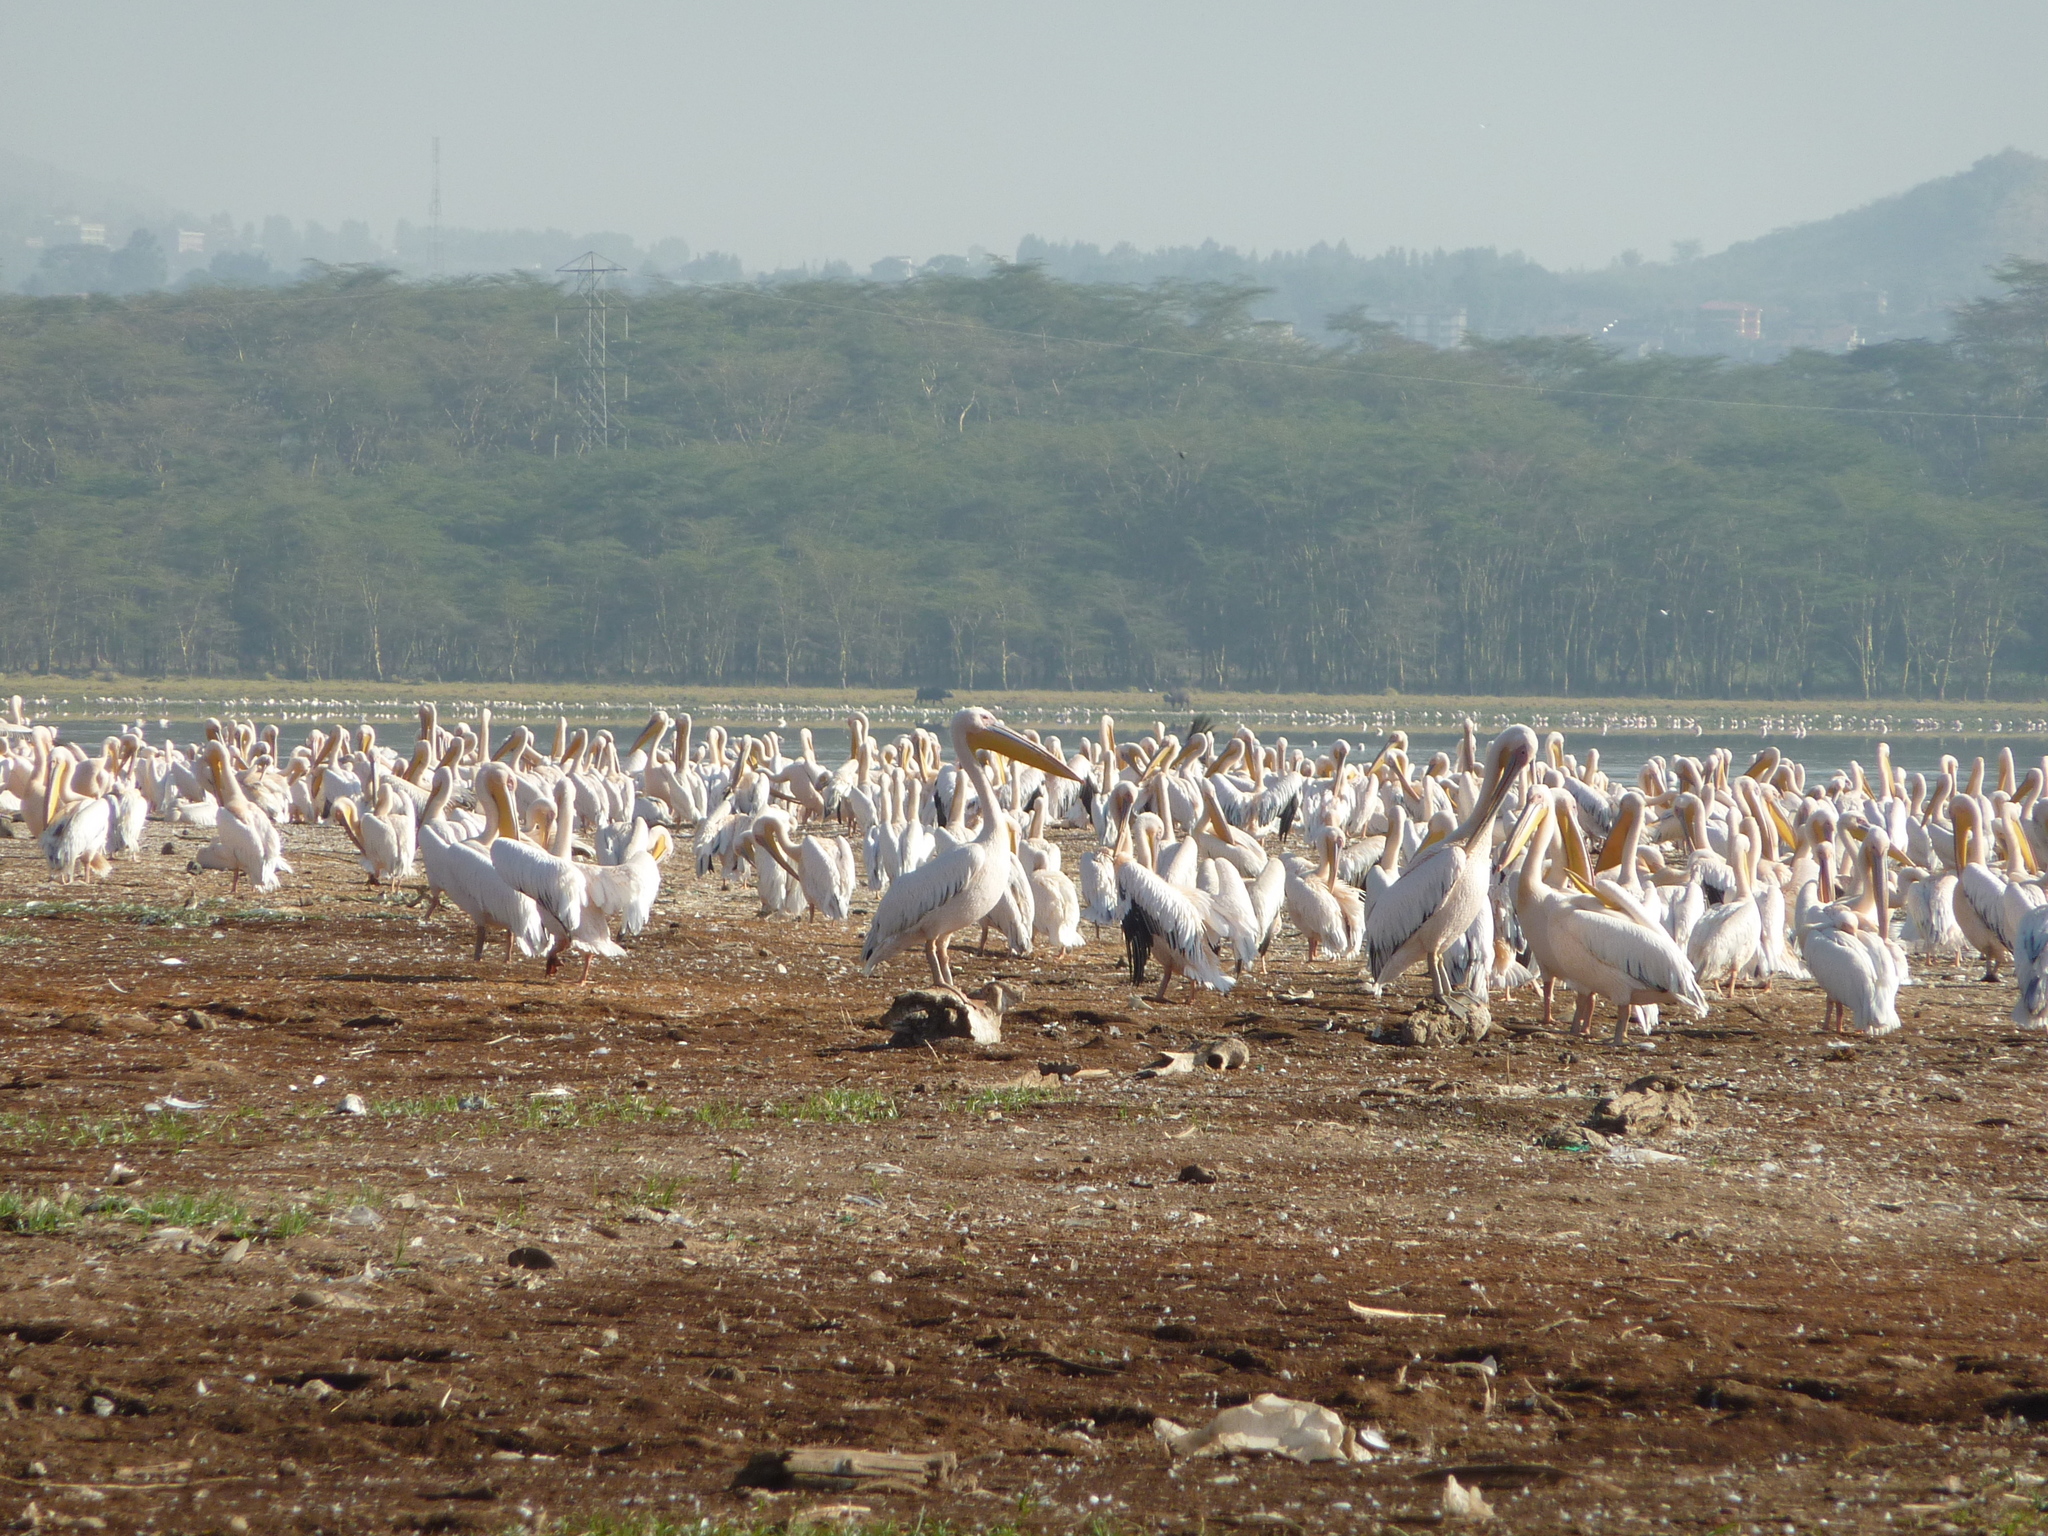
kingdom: Animalia
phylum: Chordata
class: Aves
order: Pelecaniformes
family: Pelecanidae
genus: Pelecanus
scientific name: Pelecanus onocrotalus
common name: Great white pelican
